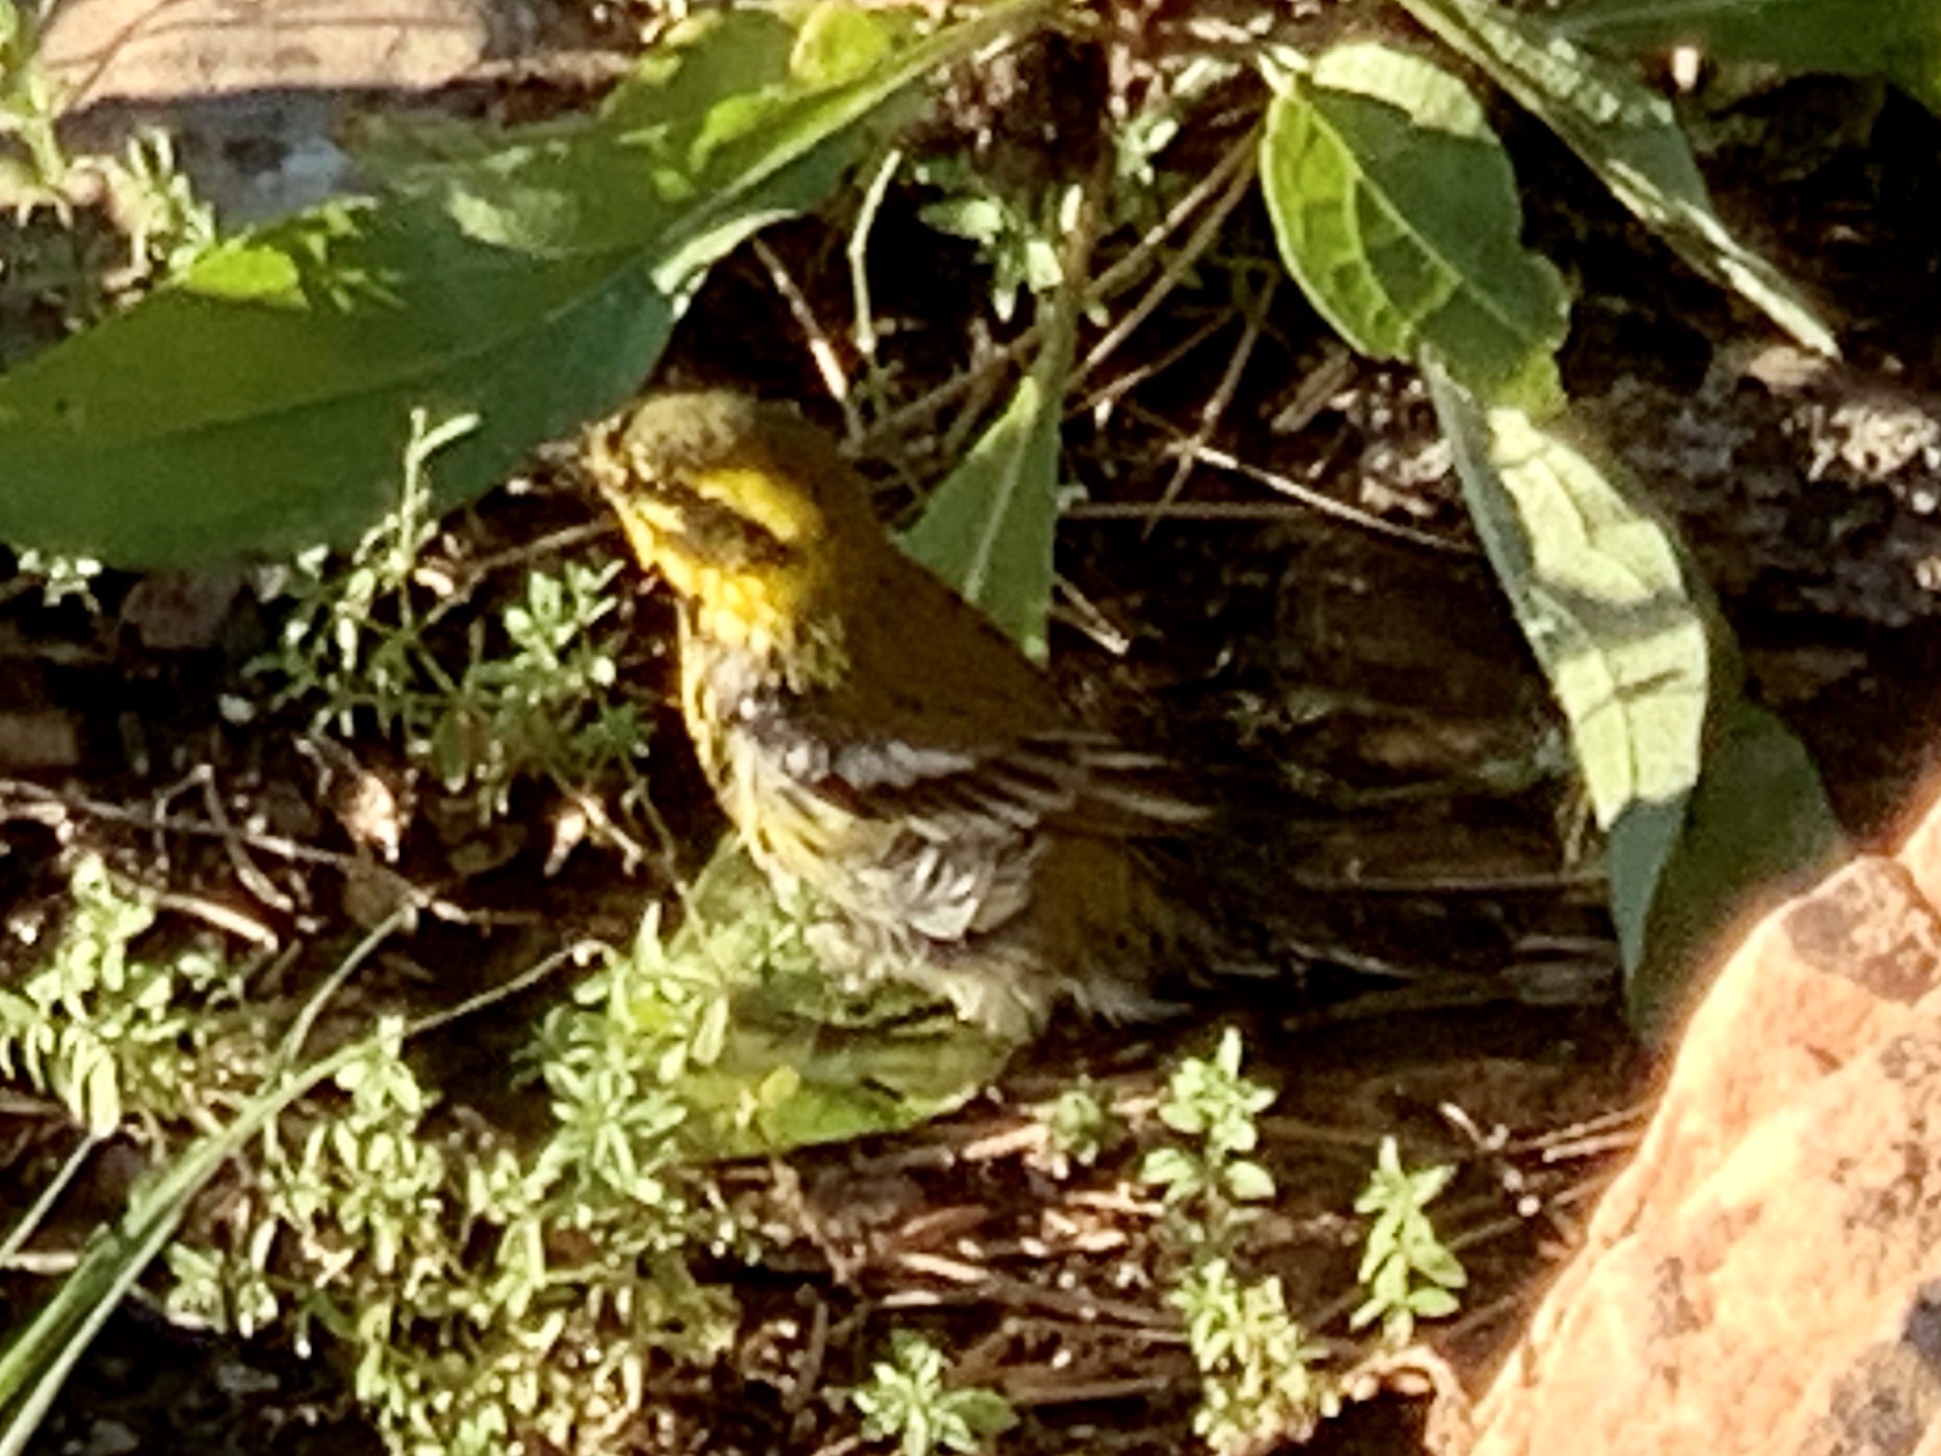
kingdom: Animalia
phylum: Chordata
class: Aves
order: Passeriformes
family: Parulidae
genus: Setophaga
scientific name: Setophaga townsendi
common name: Townsend's warbler
